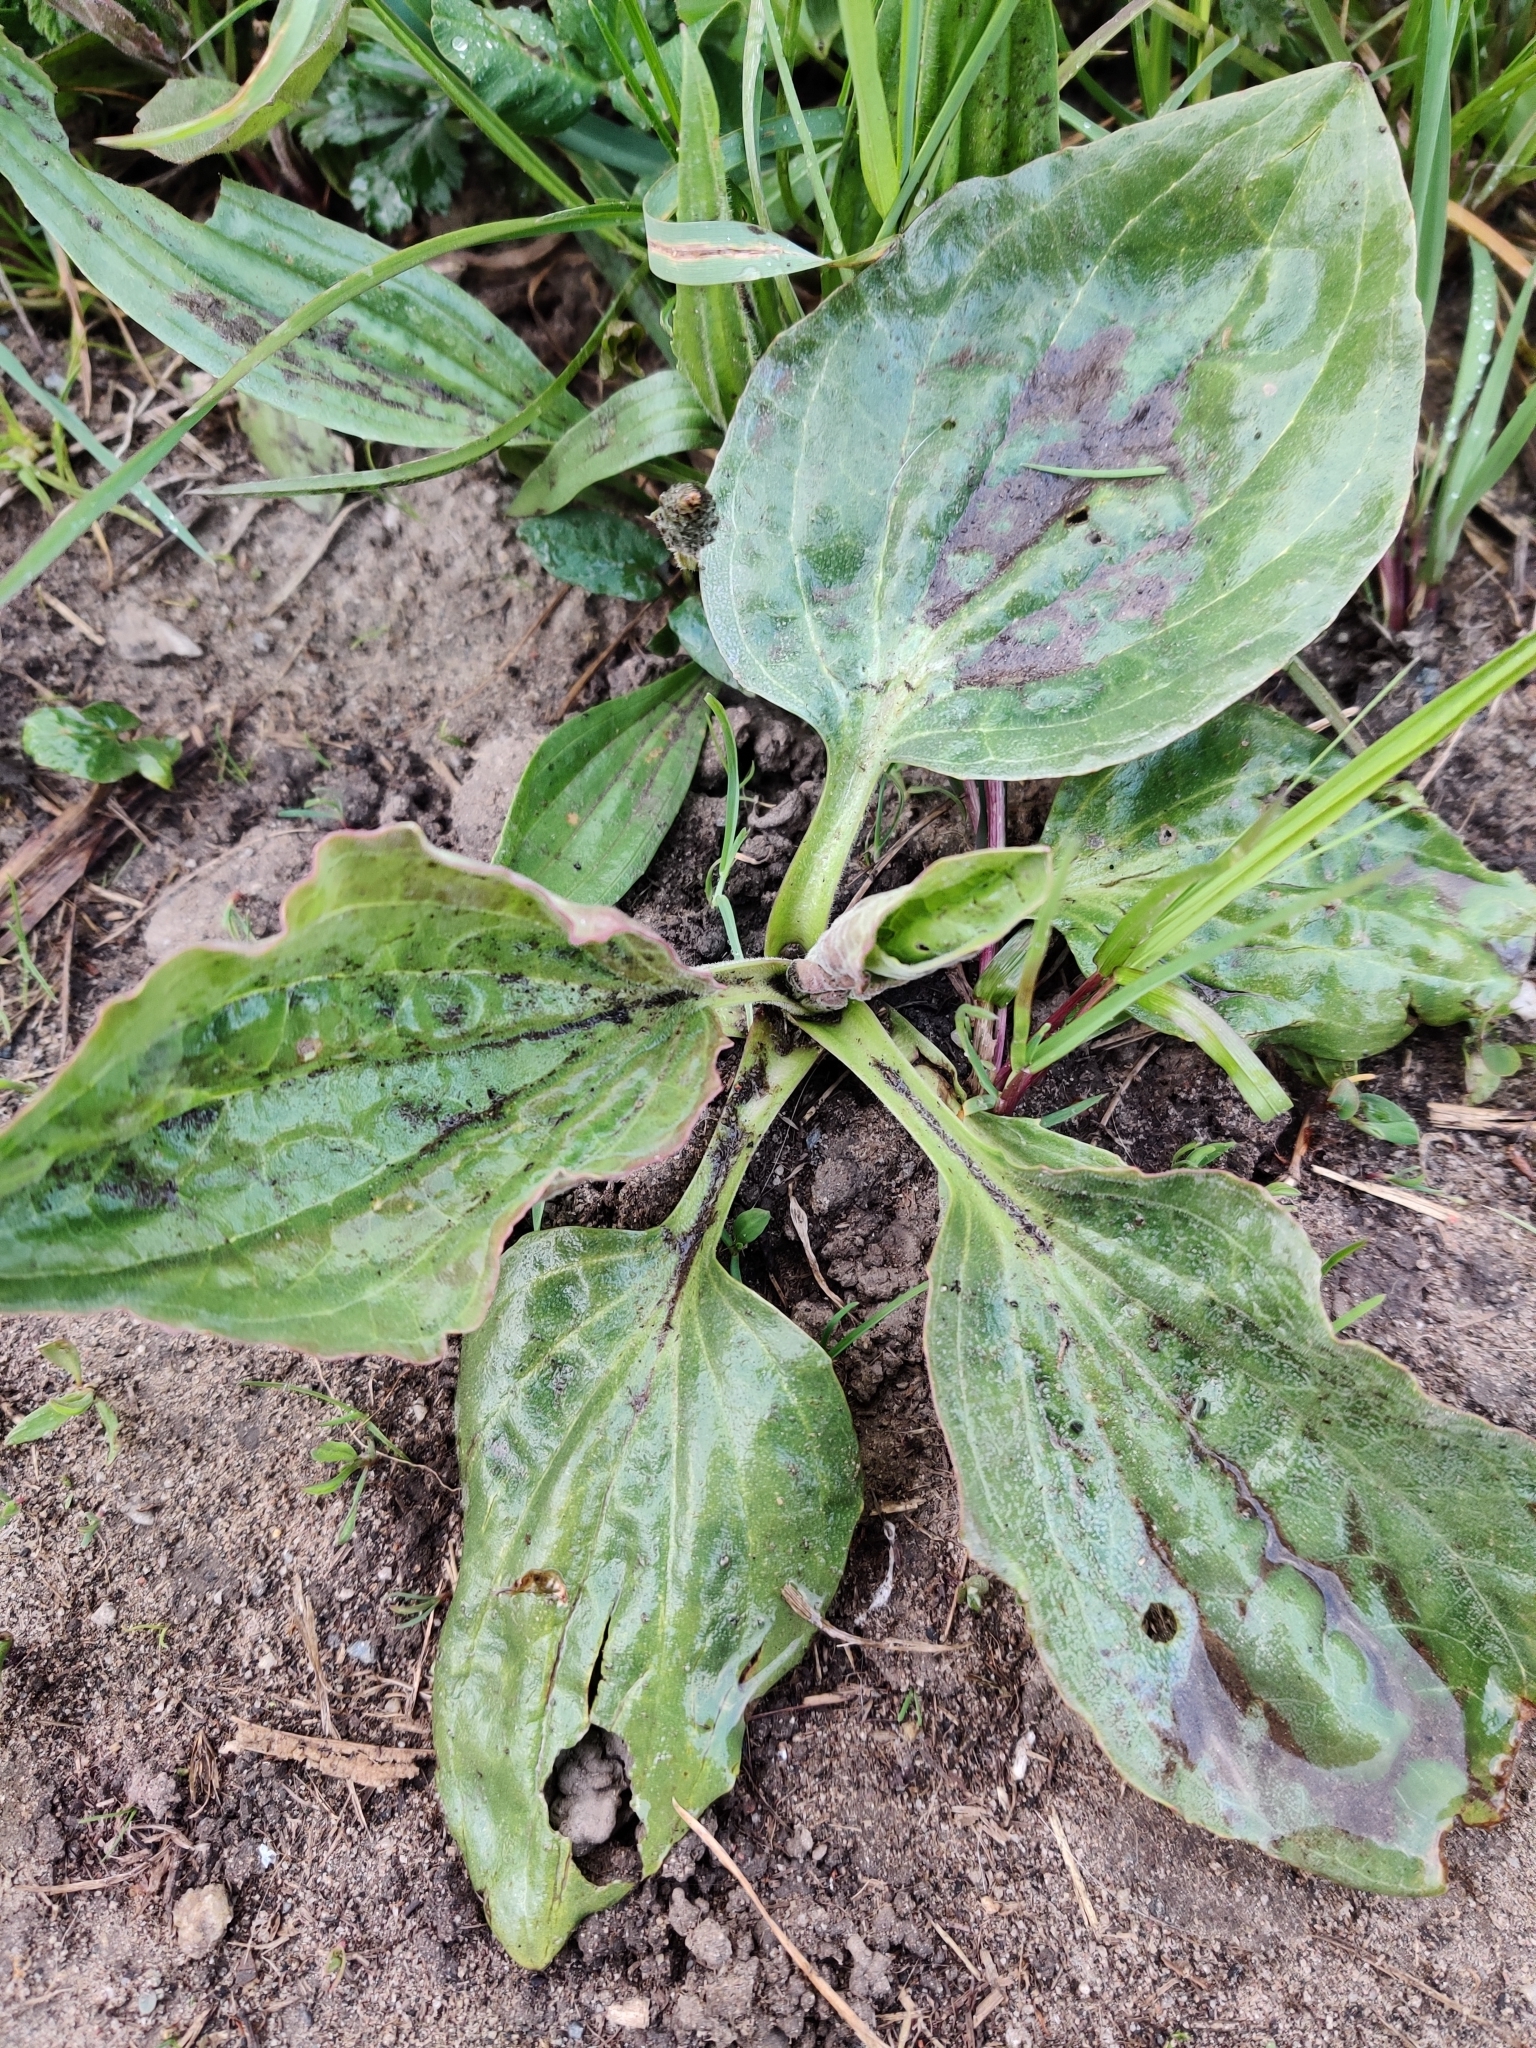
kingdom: Plantae
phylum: Tracheophyta
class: Magnoliopsida
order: Lamiales
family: Plantaginaceae
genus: Plantago
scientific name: Plantago major
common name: Common plantain
